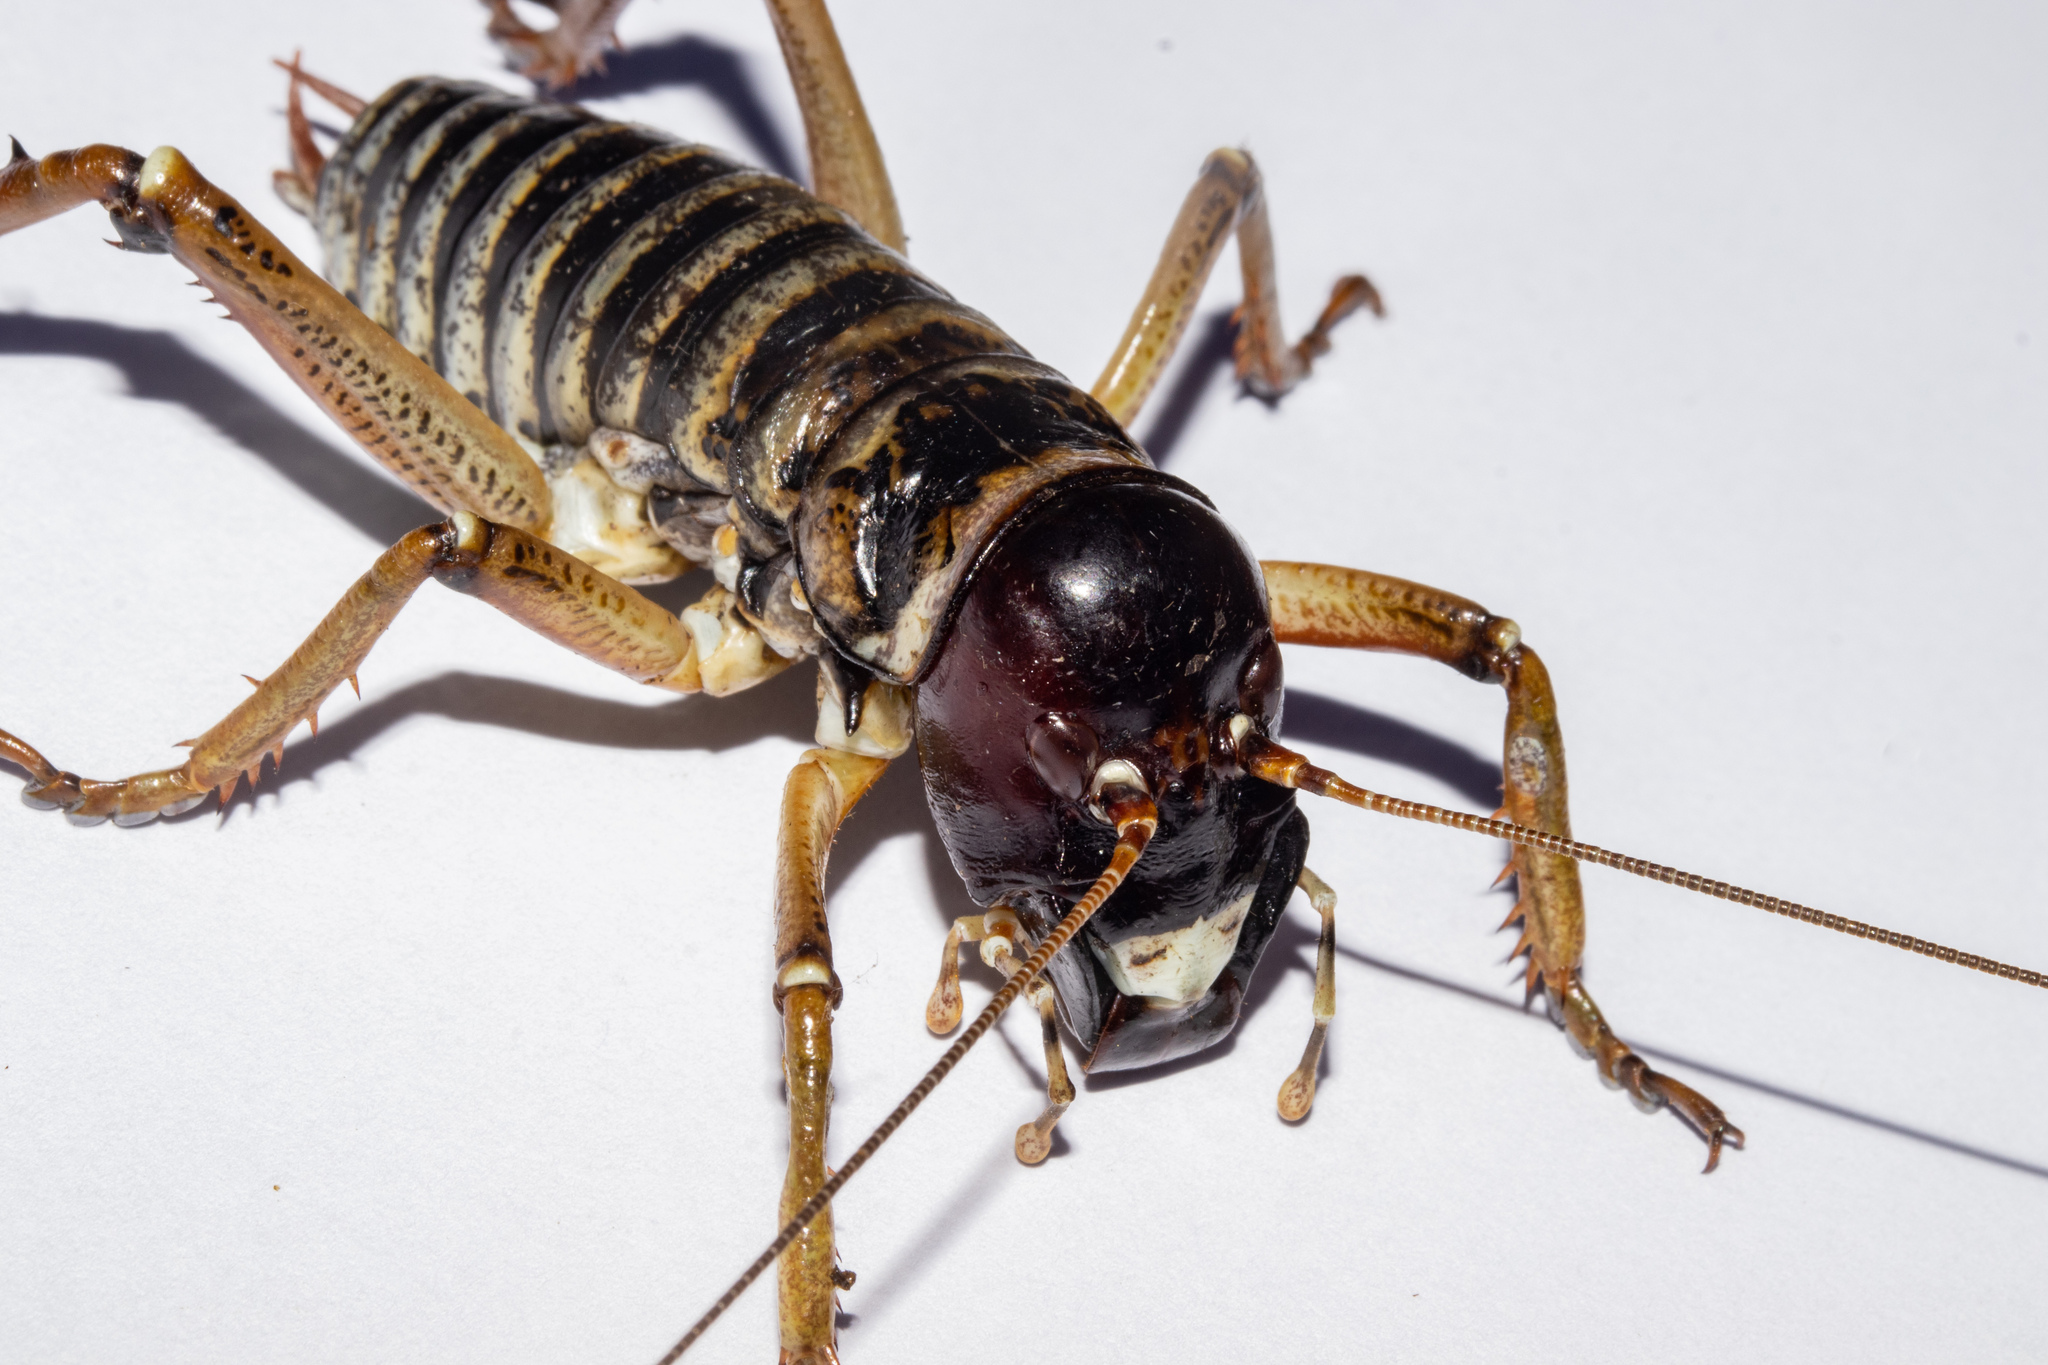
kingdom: Animalia
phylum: Arthropoda
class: Insecta
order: Orthoptera
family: Anostostomatidae
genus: Hemideina
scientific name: Hemideina maori
